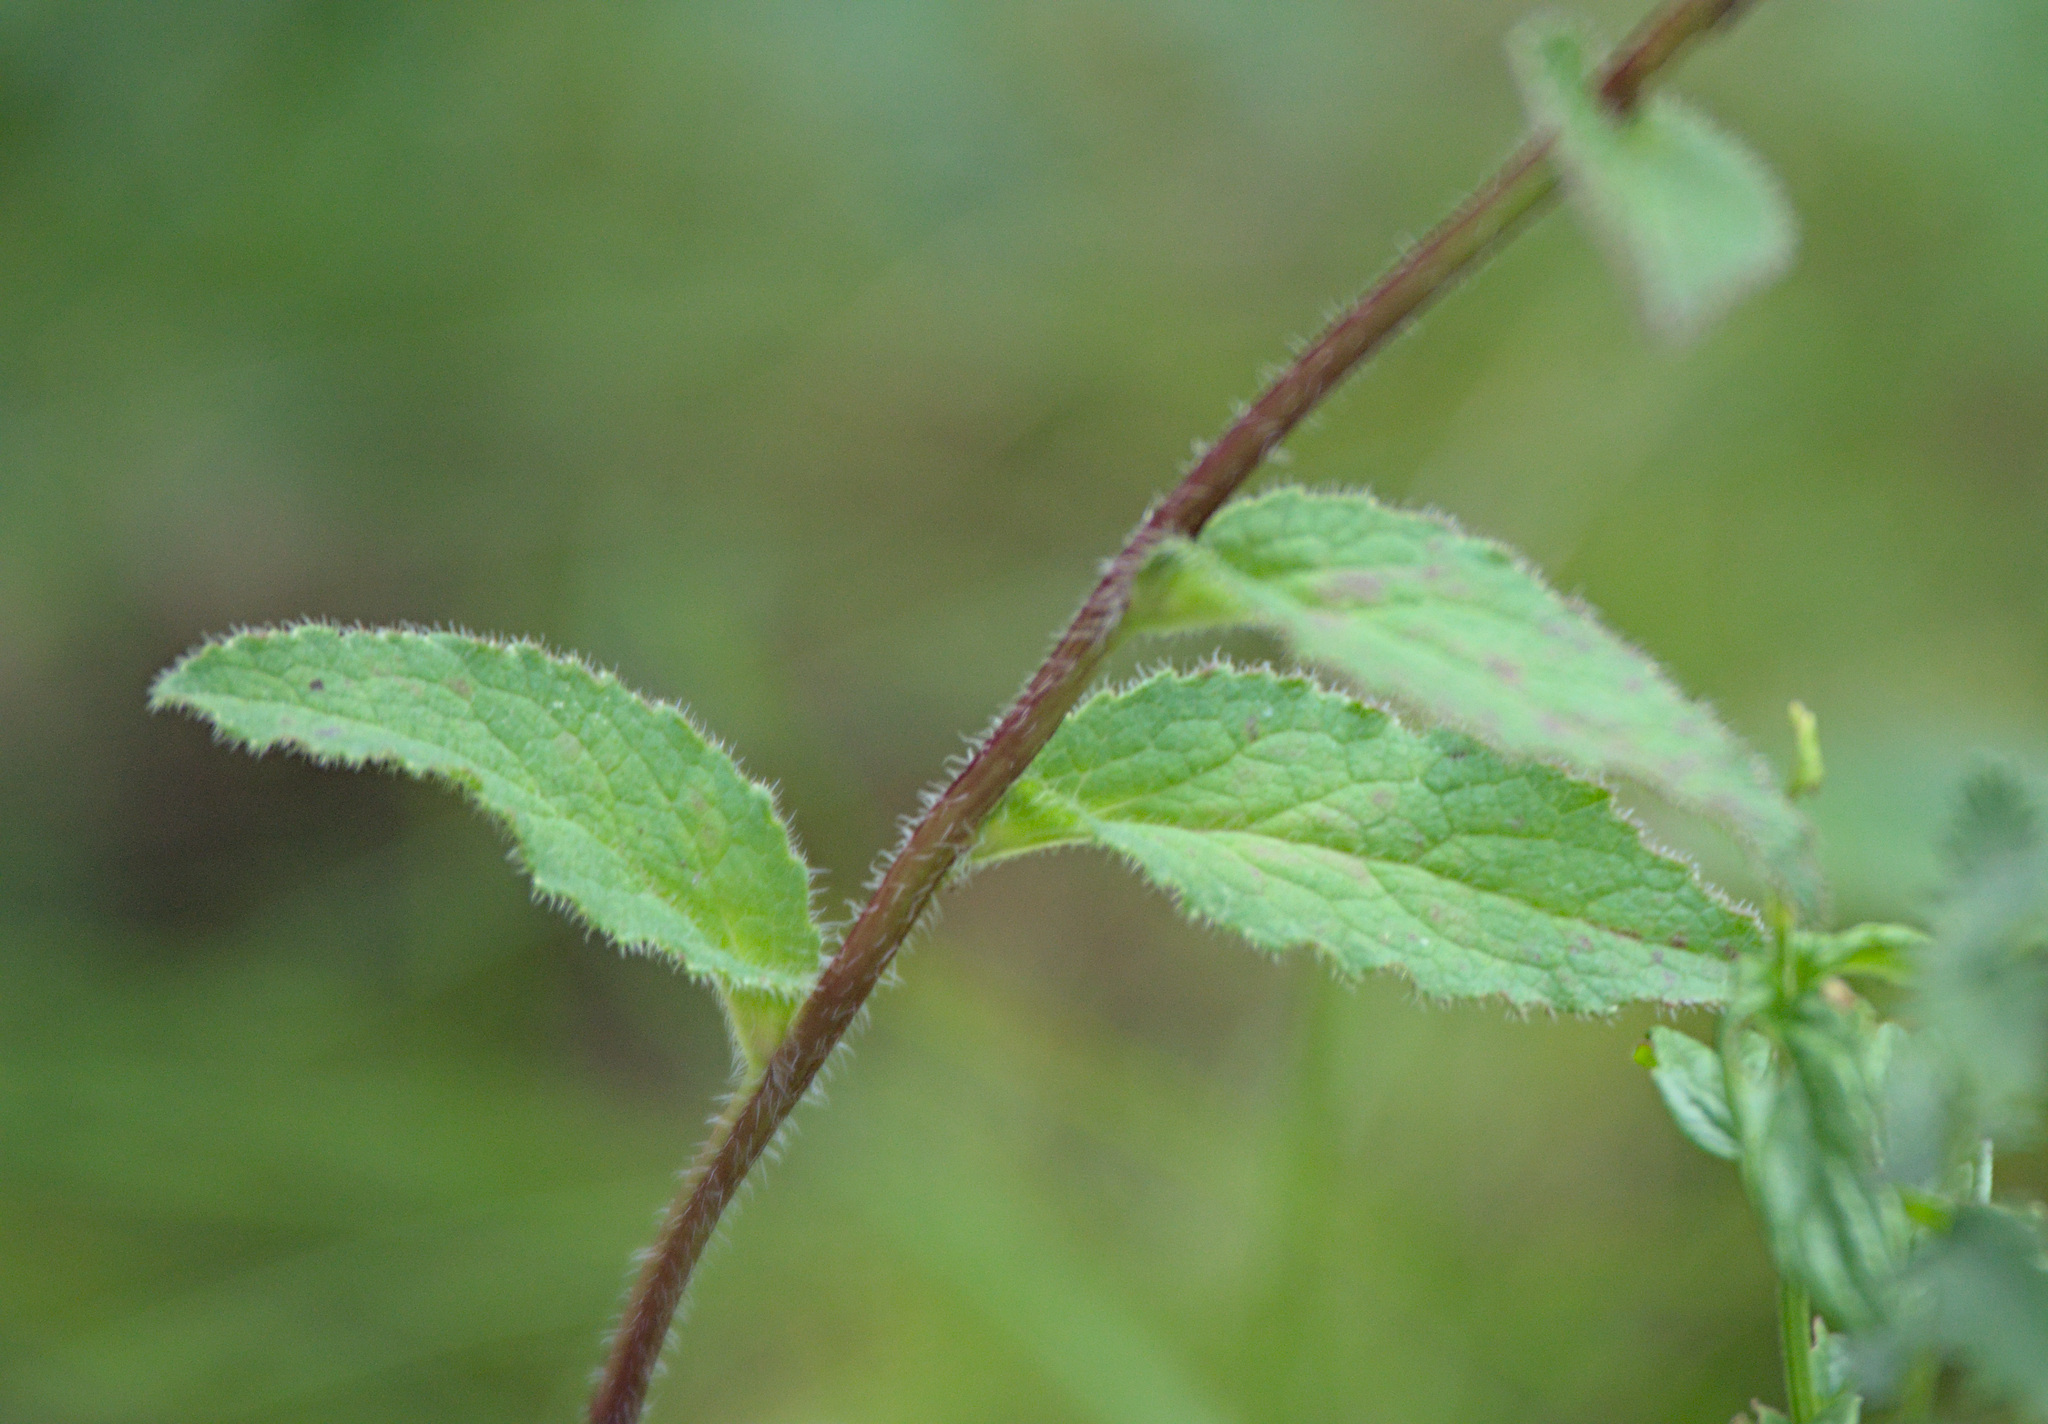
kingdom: Plantae
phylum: Tracheophyta
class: Magnoliopsida
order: Asterales
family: Campanulaceae
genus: Campanula
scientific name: Campanula glomerata
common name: Clustered bellflower
